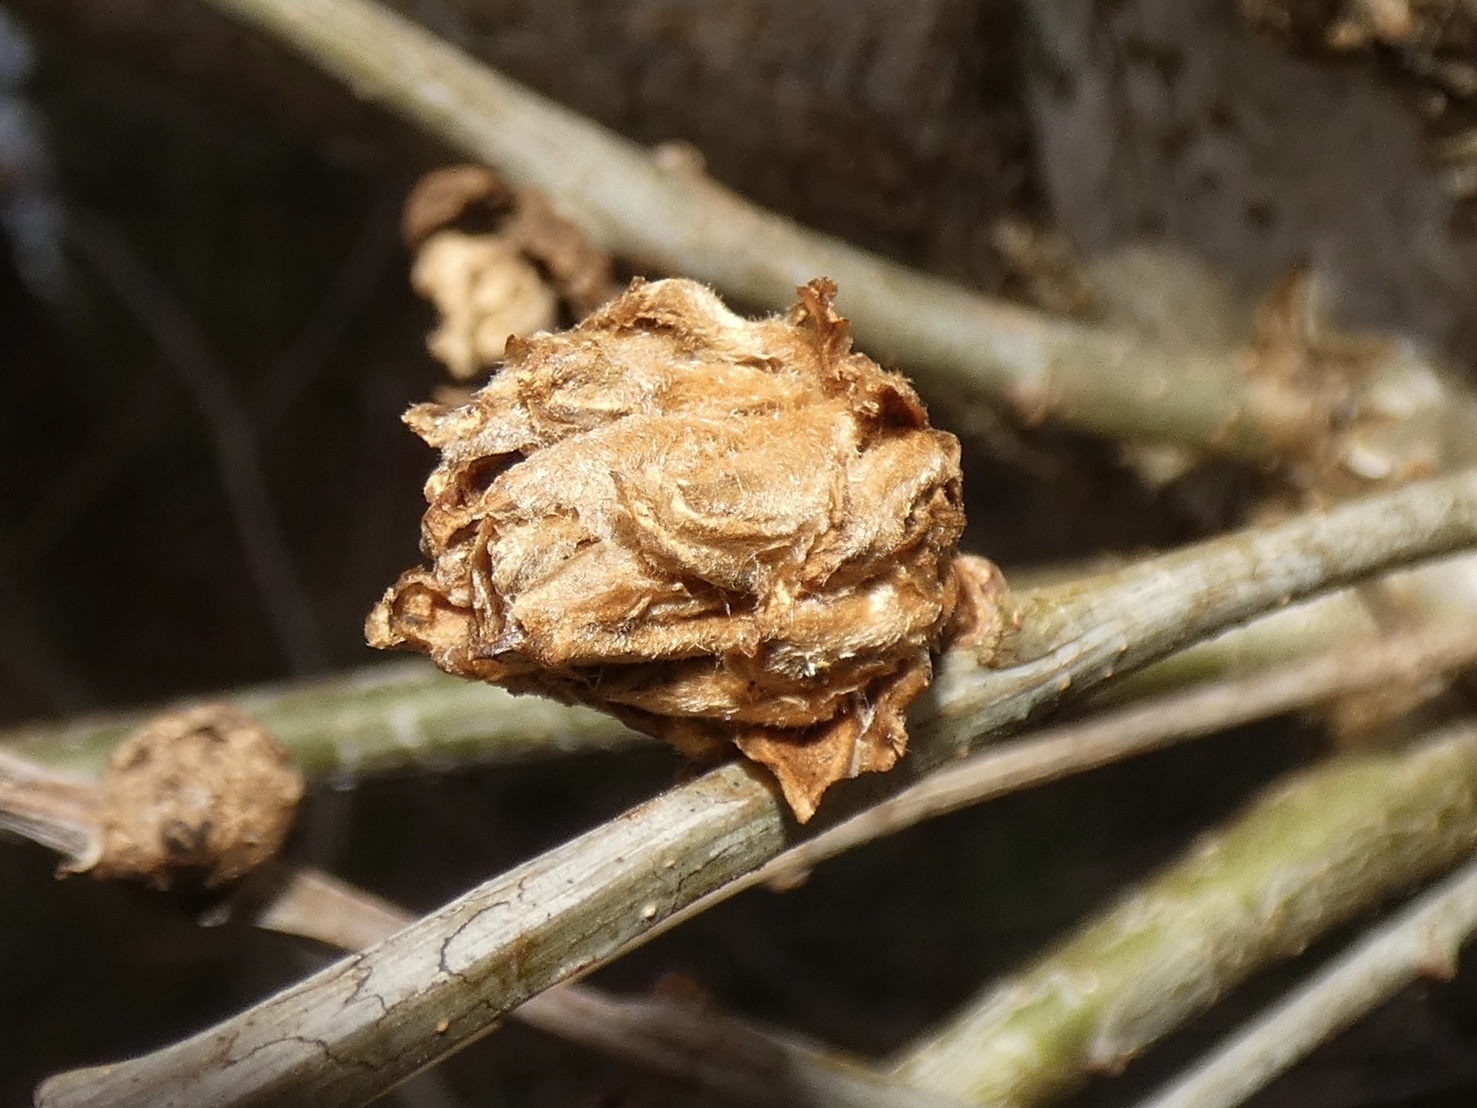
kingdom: Animalia
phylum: Arthropoda
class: Insecta
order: Hymenoptera
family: Cynipidae
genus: Andricus
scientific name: Andricus foecundatrix
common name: Artichoke gall
